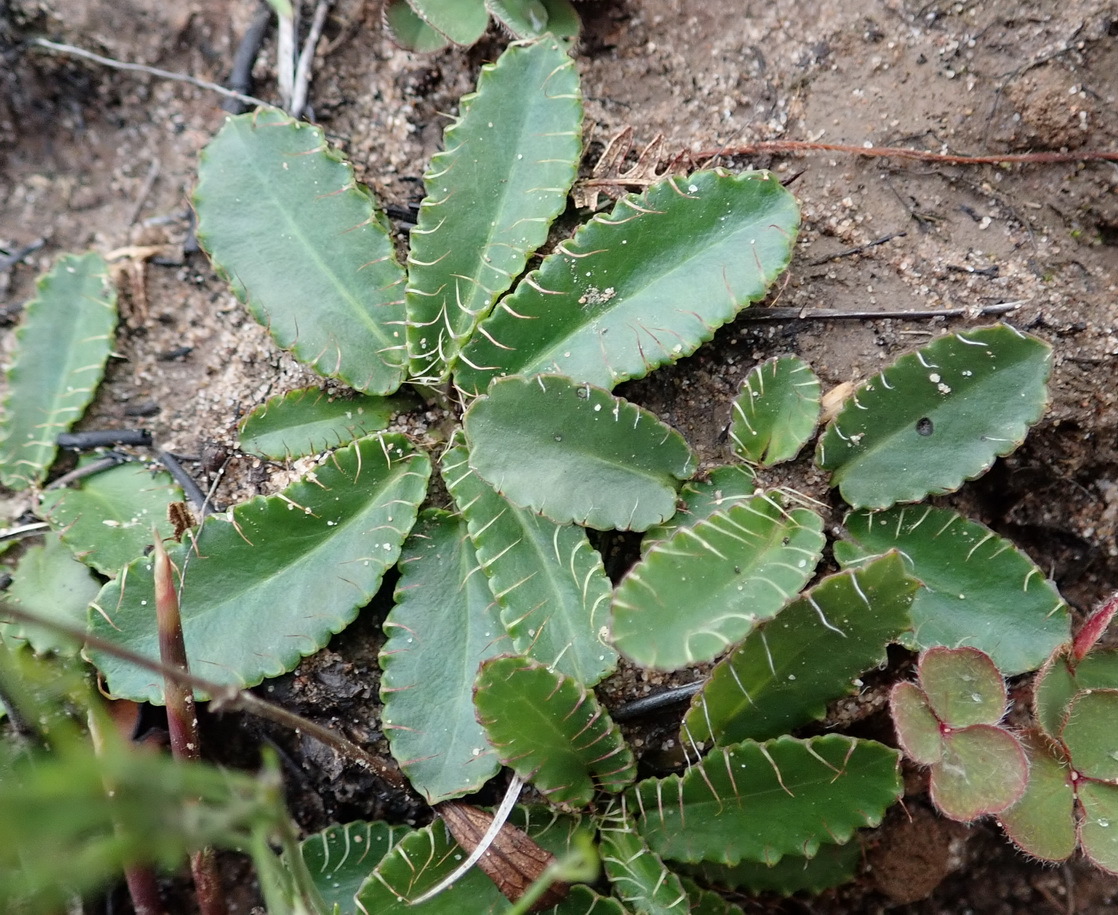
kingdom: Plantae
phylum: Tracheophyta
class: Magnoliopsida
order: Apiales
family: Apiaceae
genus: Alepidea
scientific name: Alepidea capensis
